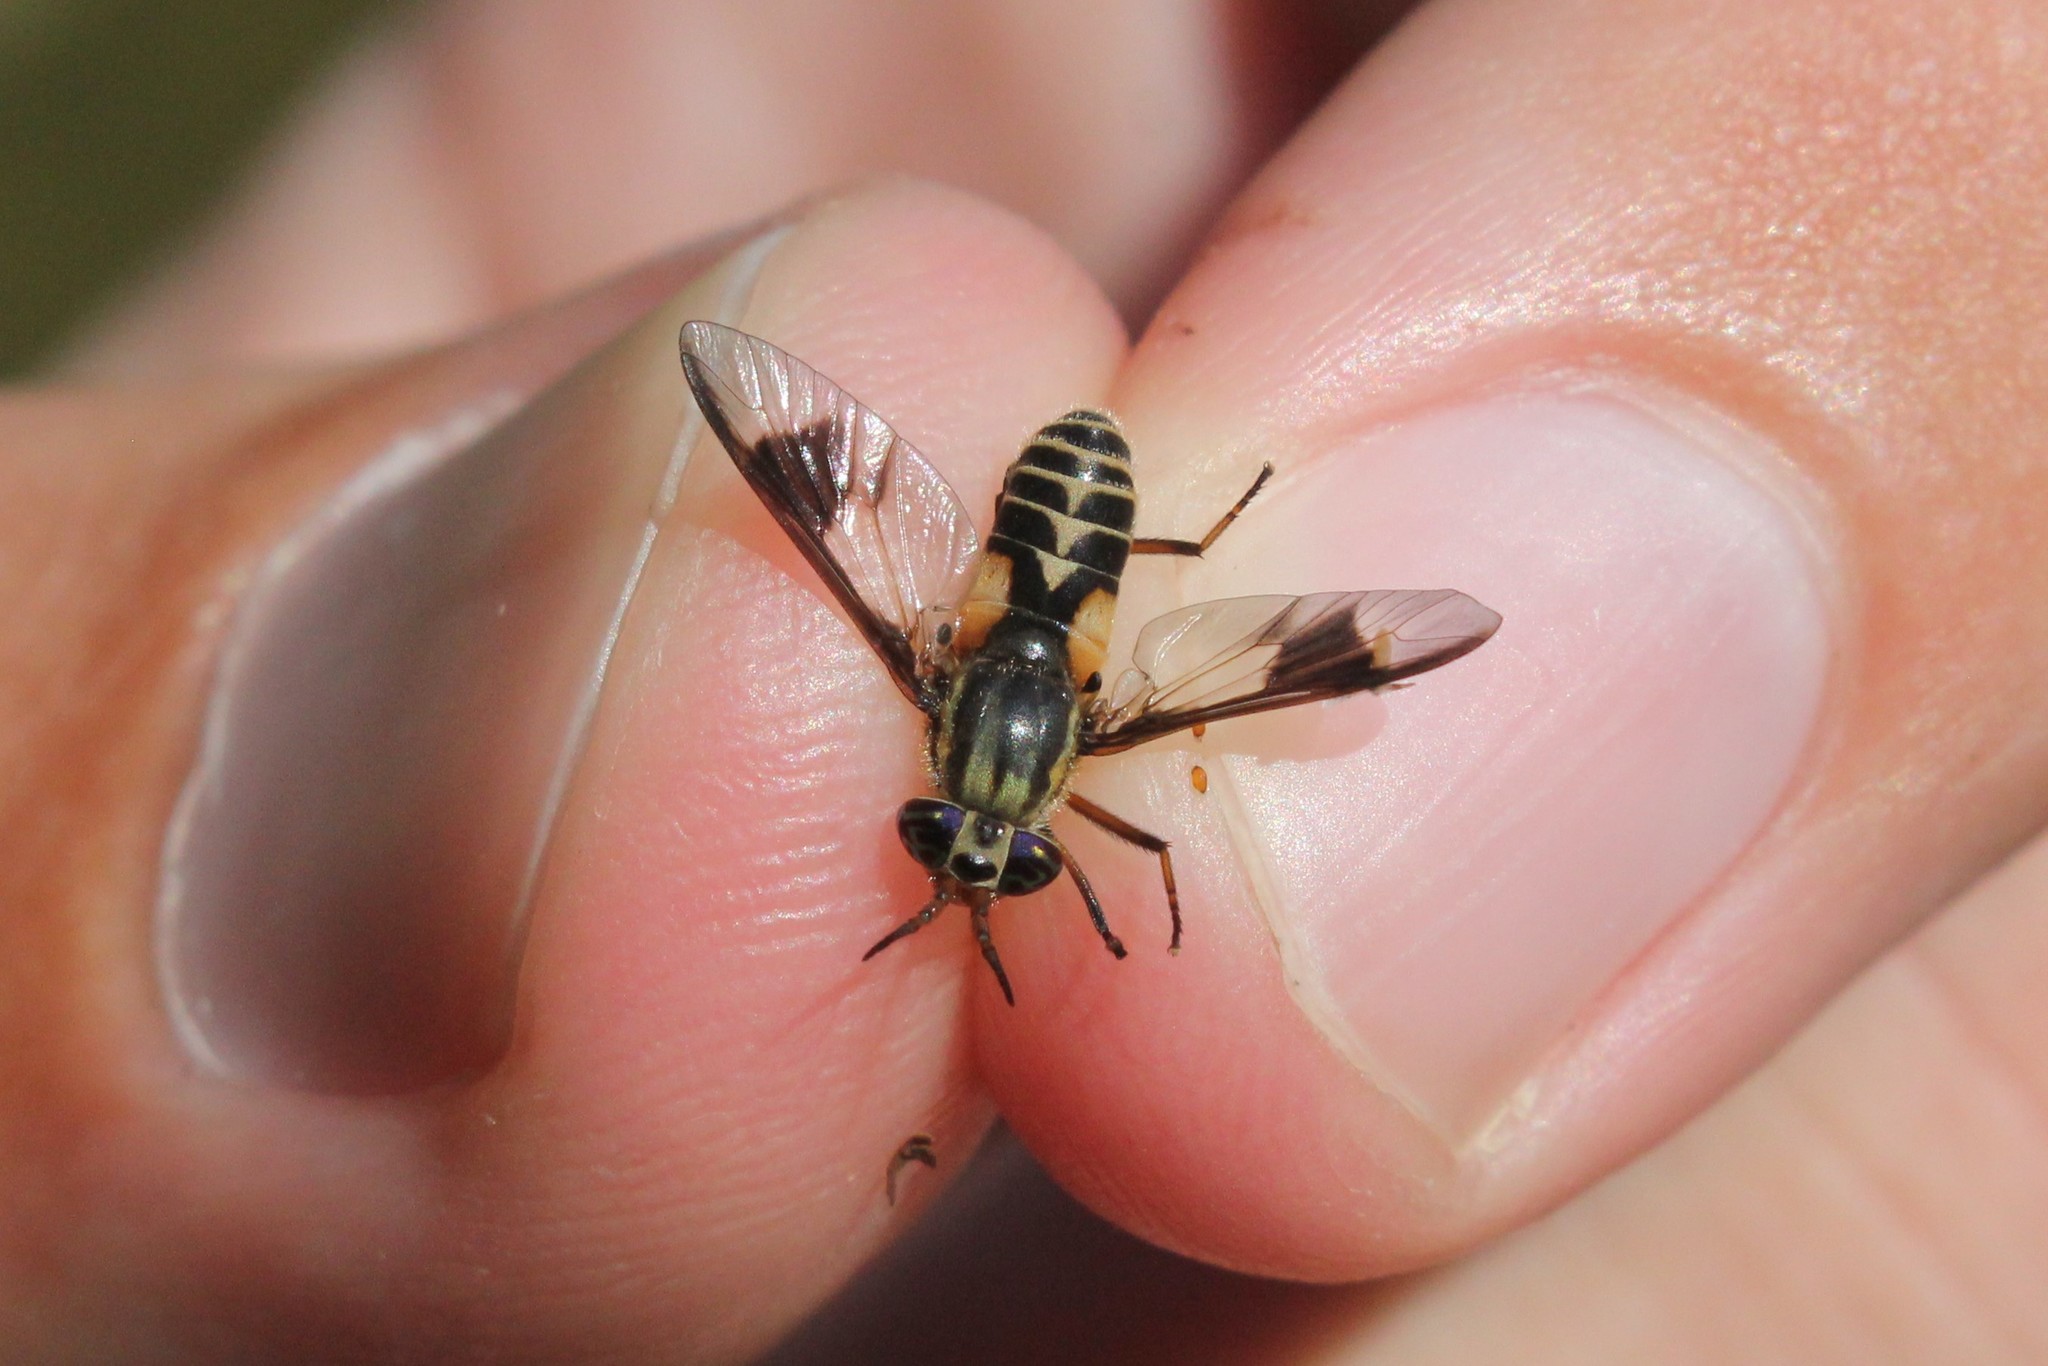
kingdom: Animalia
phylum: Arthropoda
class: Insecta
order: Diptera
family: Tabanidae
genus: Chrysops
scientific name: Chrysops callidus
